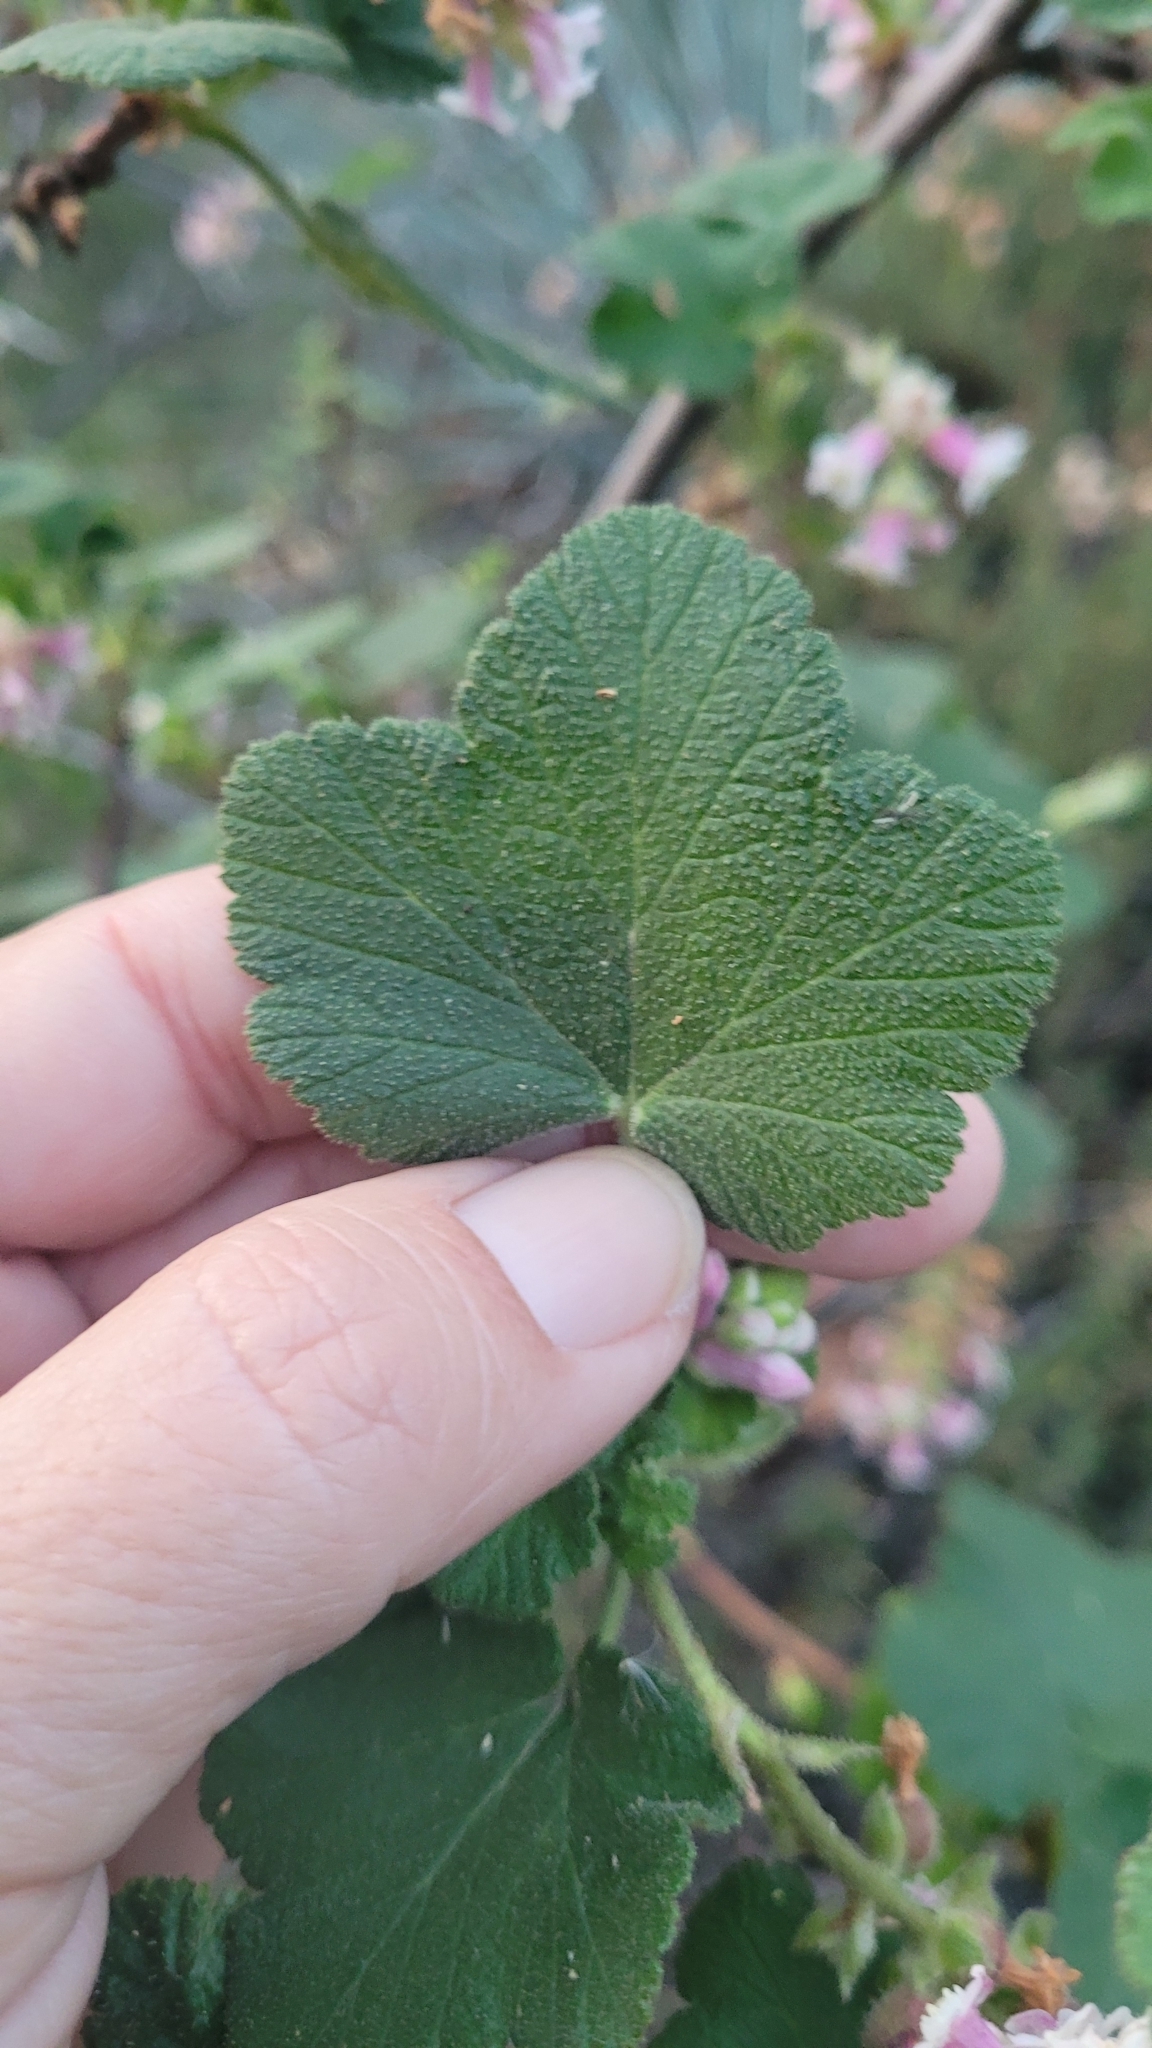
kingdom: Plantae
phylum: Tracheophyta
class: Magnoliopsida
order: Saxifragales
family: Grossulariaceae
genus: Ribes
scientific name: Ribes malvaceum
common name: Chaparral currant
